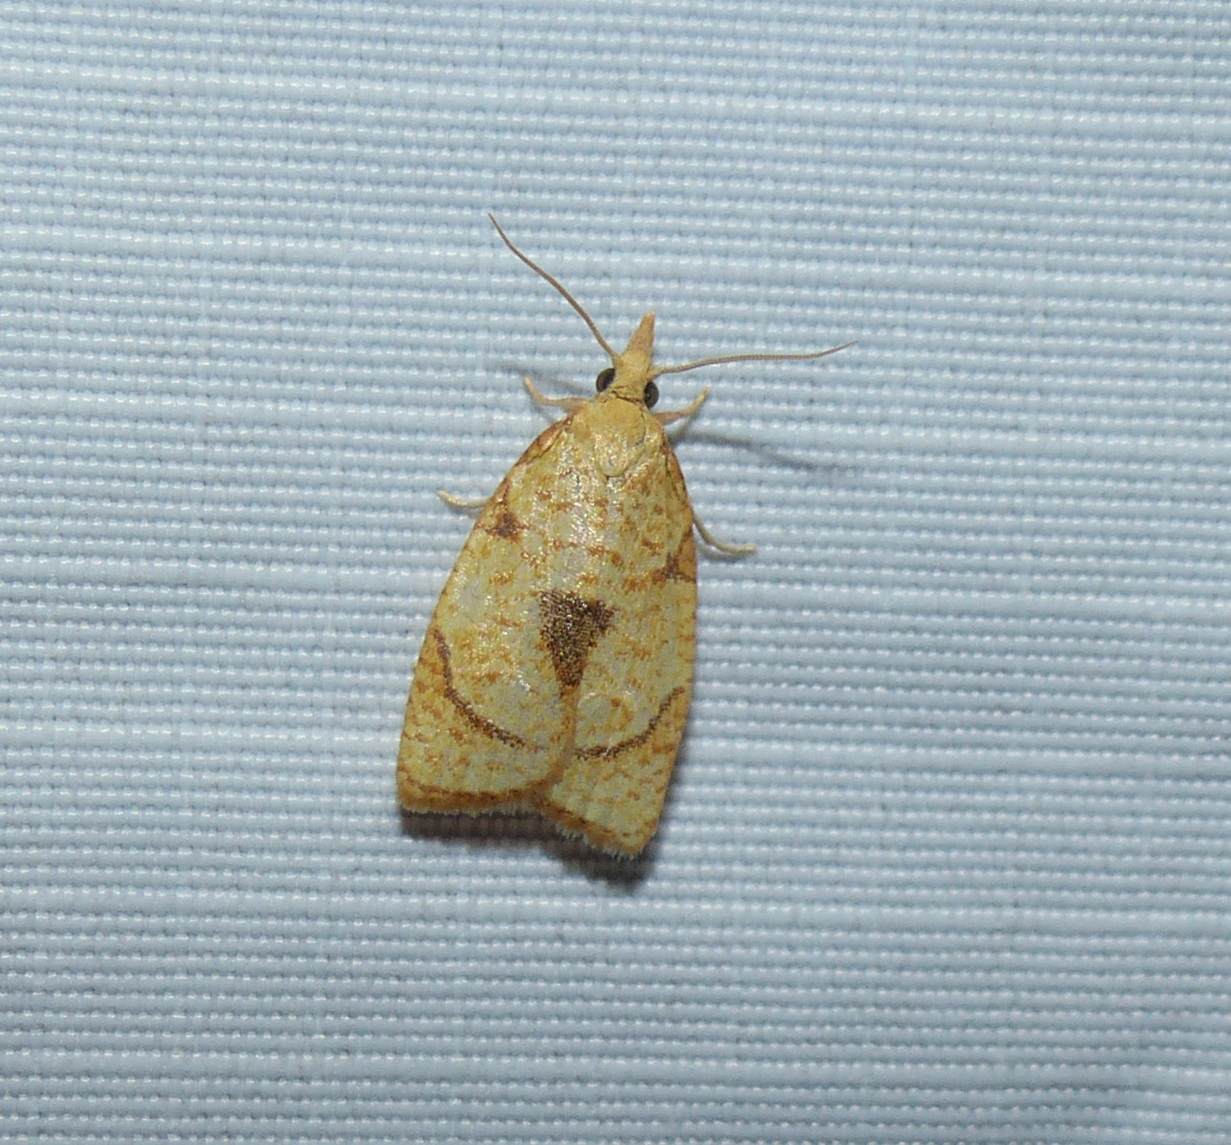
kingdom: Animalia
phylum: Arthropoda
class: Insecta
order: Lepidoptera
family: Tortricidae
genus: Cenopis
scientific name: Cenopis mesospila
